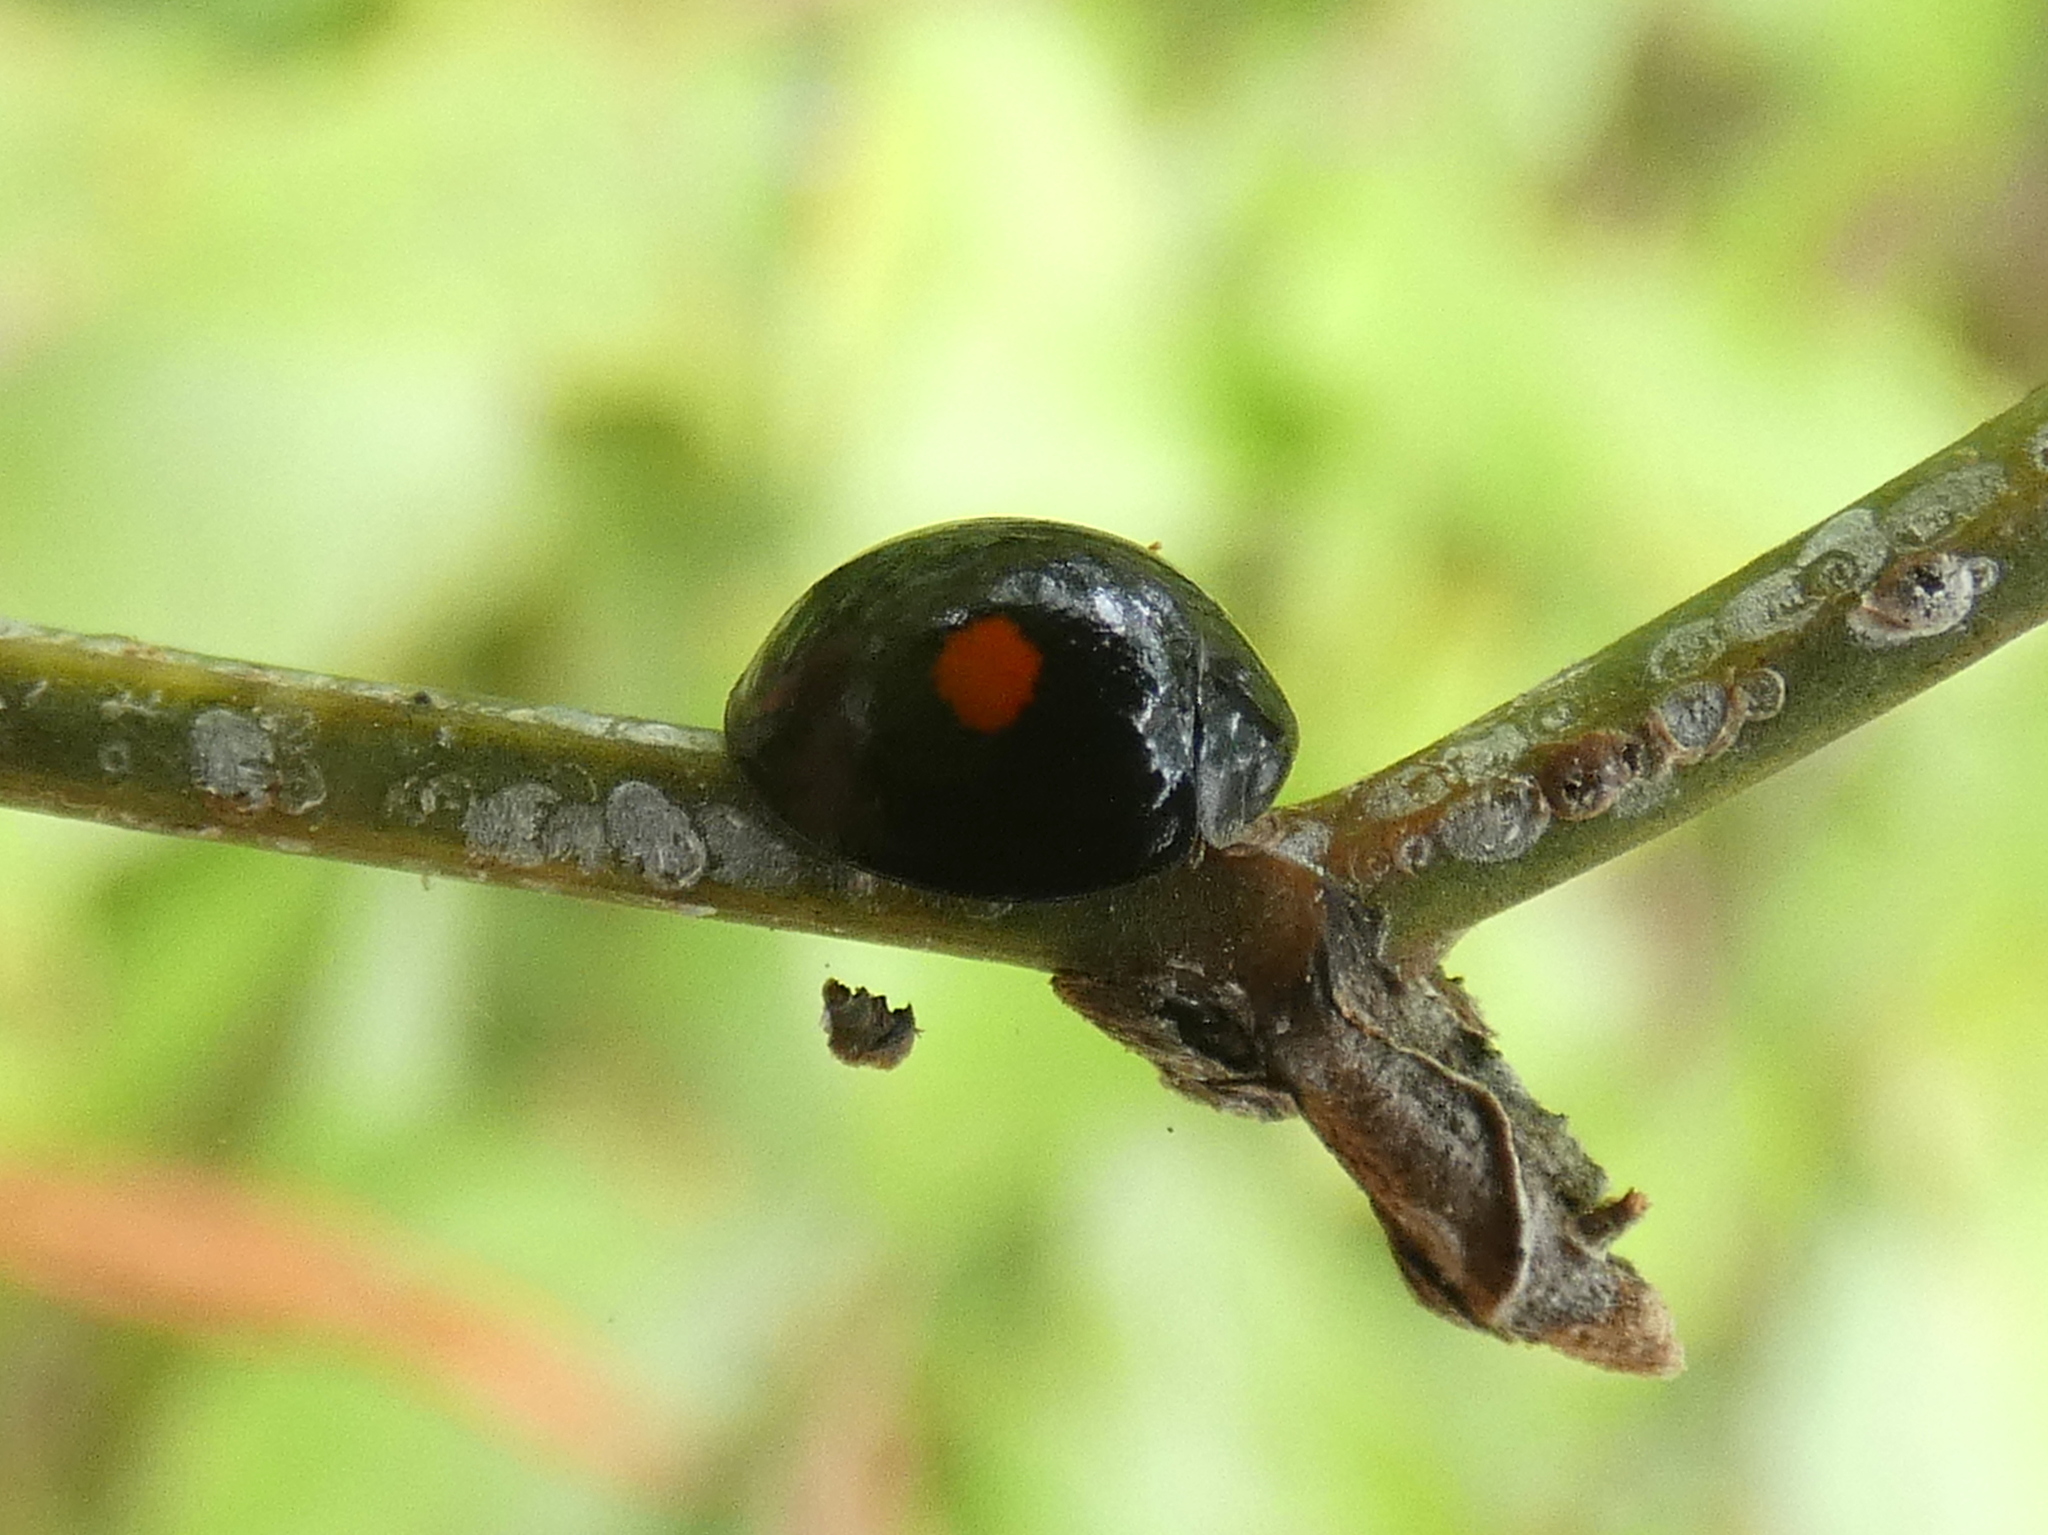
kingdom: Animalia
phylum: Arthropoda
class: Insecta
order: Coleoptera
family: Coccinellidae
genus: Chilocorus
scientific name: Chilocorus stigma
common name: Twicestabbed lady beetle
